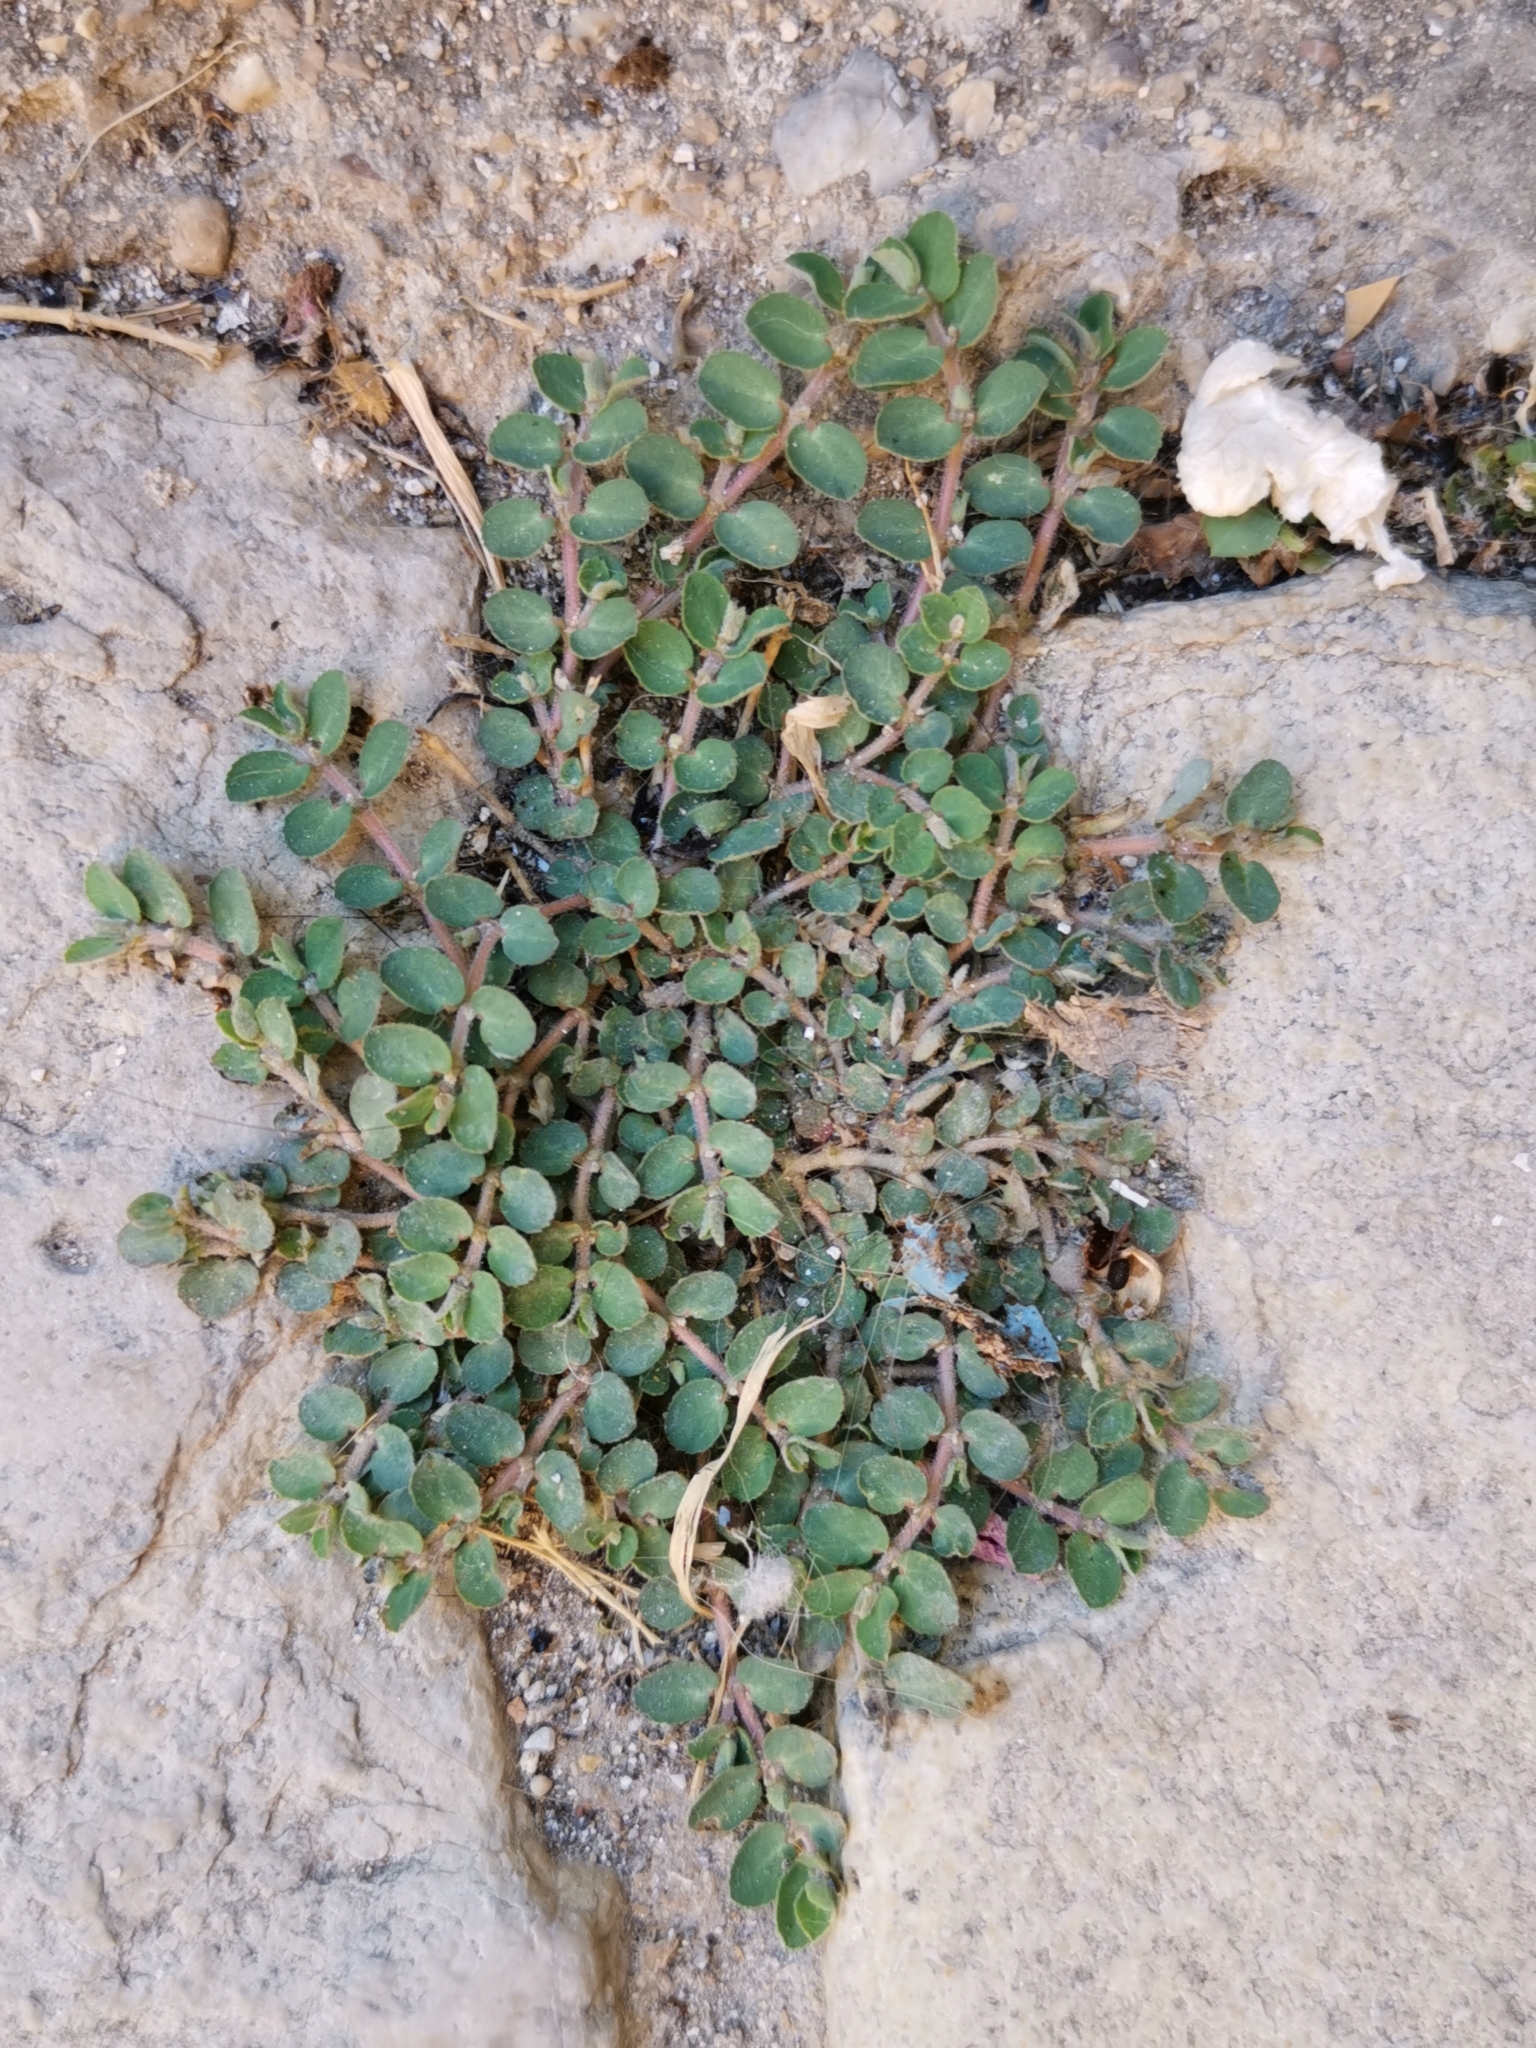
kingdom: Plantae
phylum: Tracheophyta
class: Magnoliopsida
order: Malpighiales
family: Euphorbiaceae
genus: Euphorbia
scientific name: Euphorbia prostrata
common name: Prostrate sandmat
